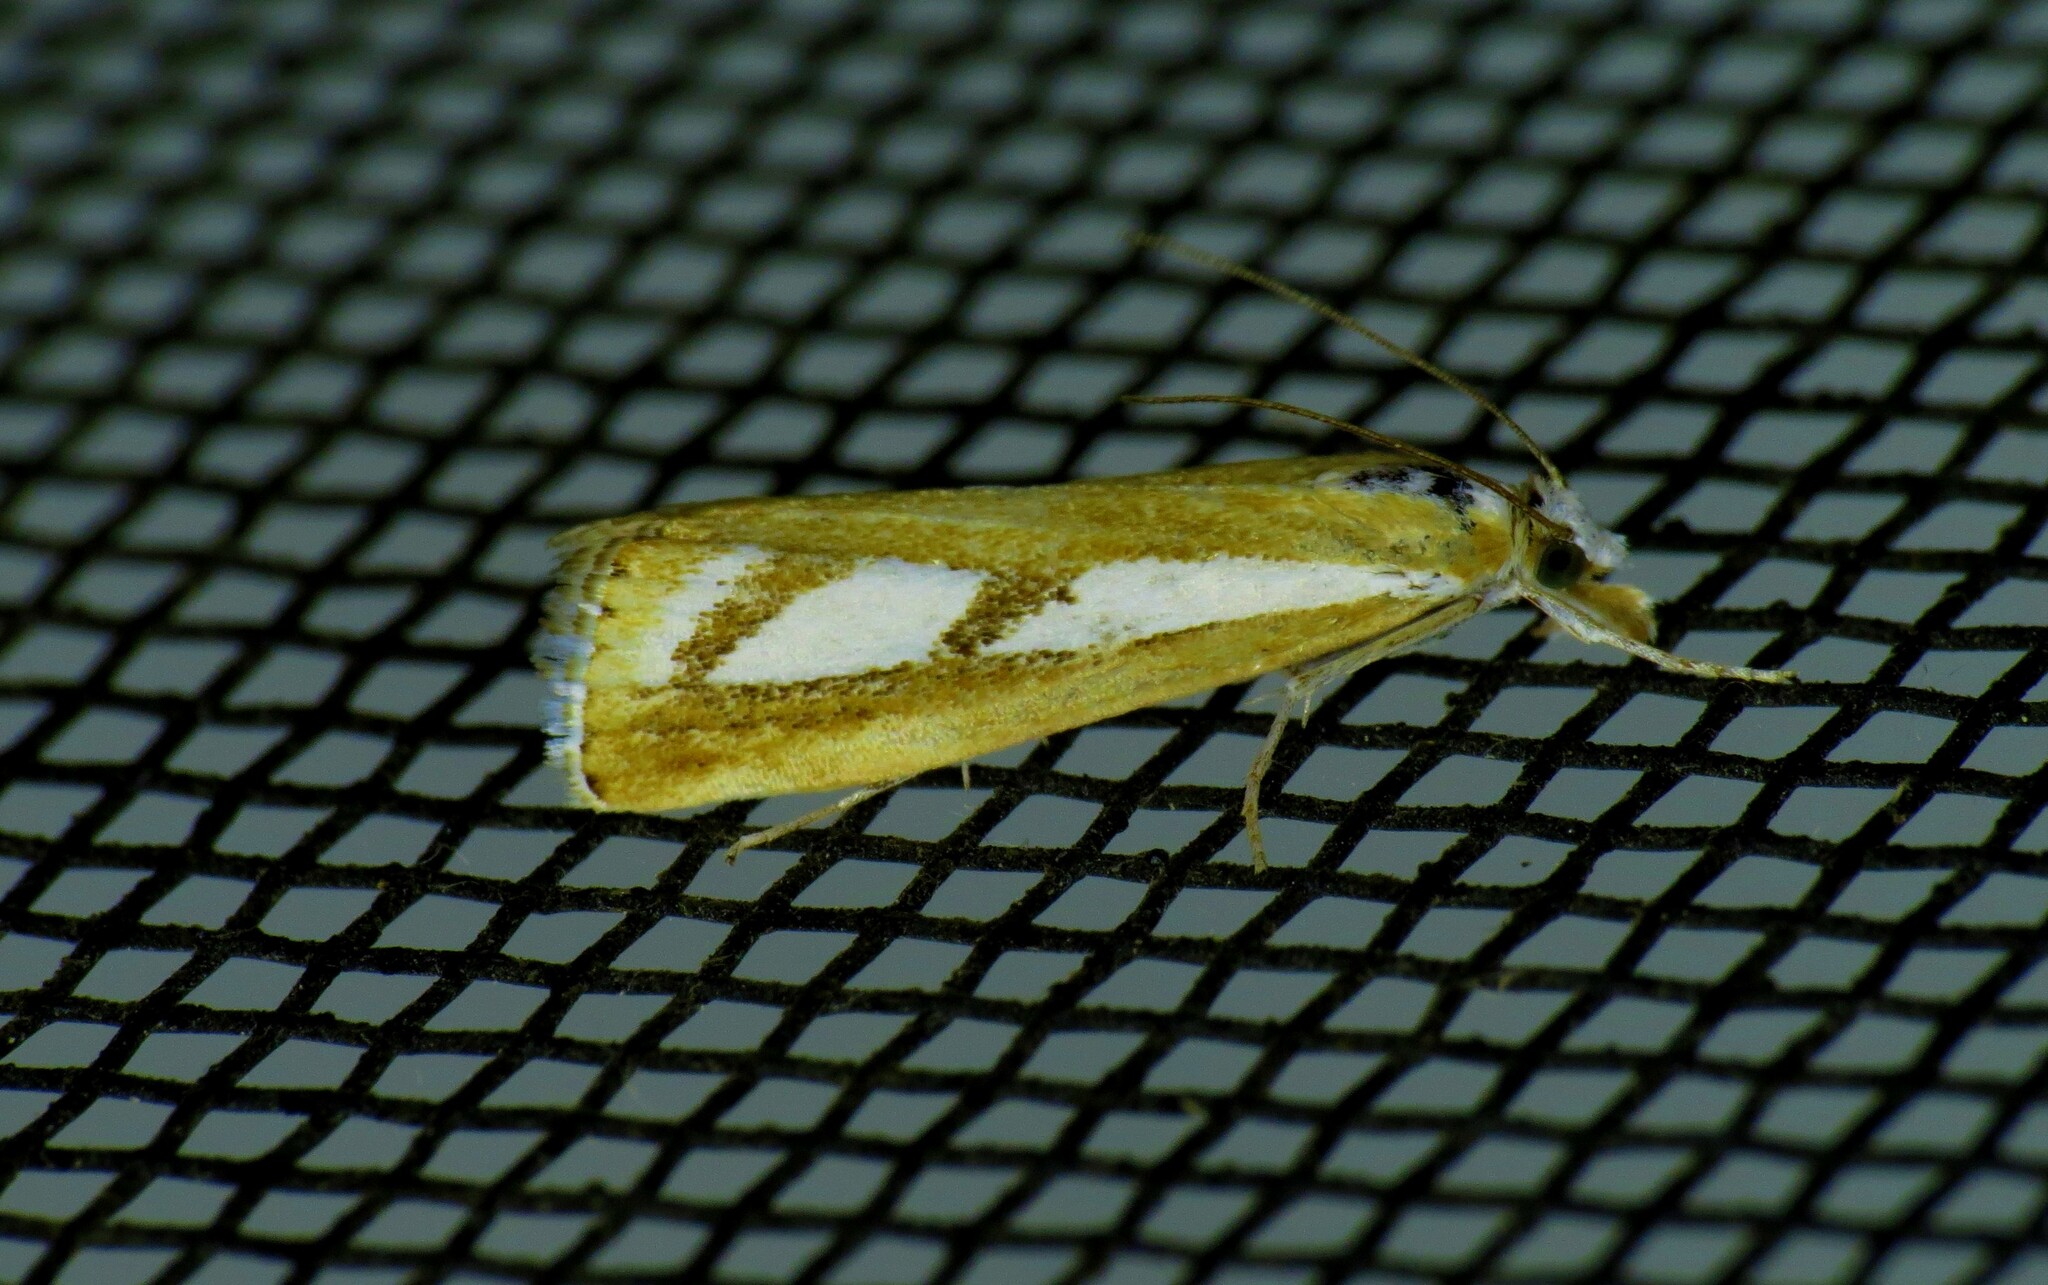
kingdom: Animalia
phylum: Arthropoda
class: Insecta
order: Lepidoptera
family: Crambidae
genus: Catoptria
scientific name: Catoptria latiradiellus
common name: Two-banded catoptria moth
